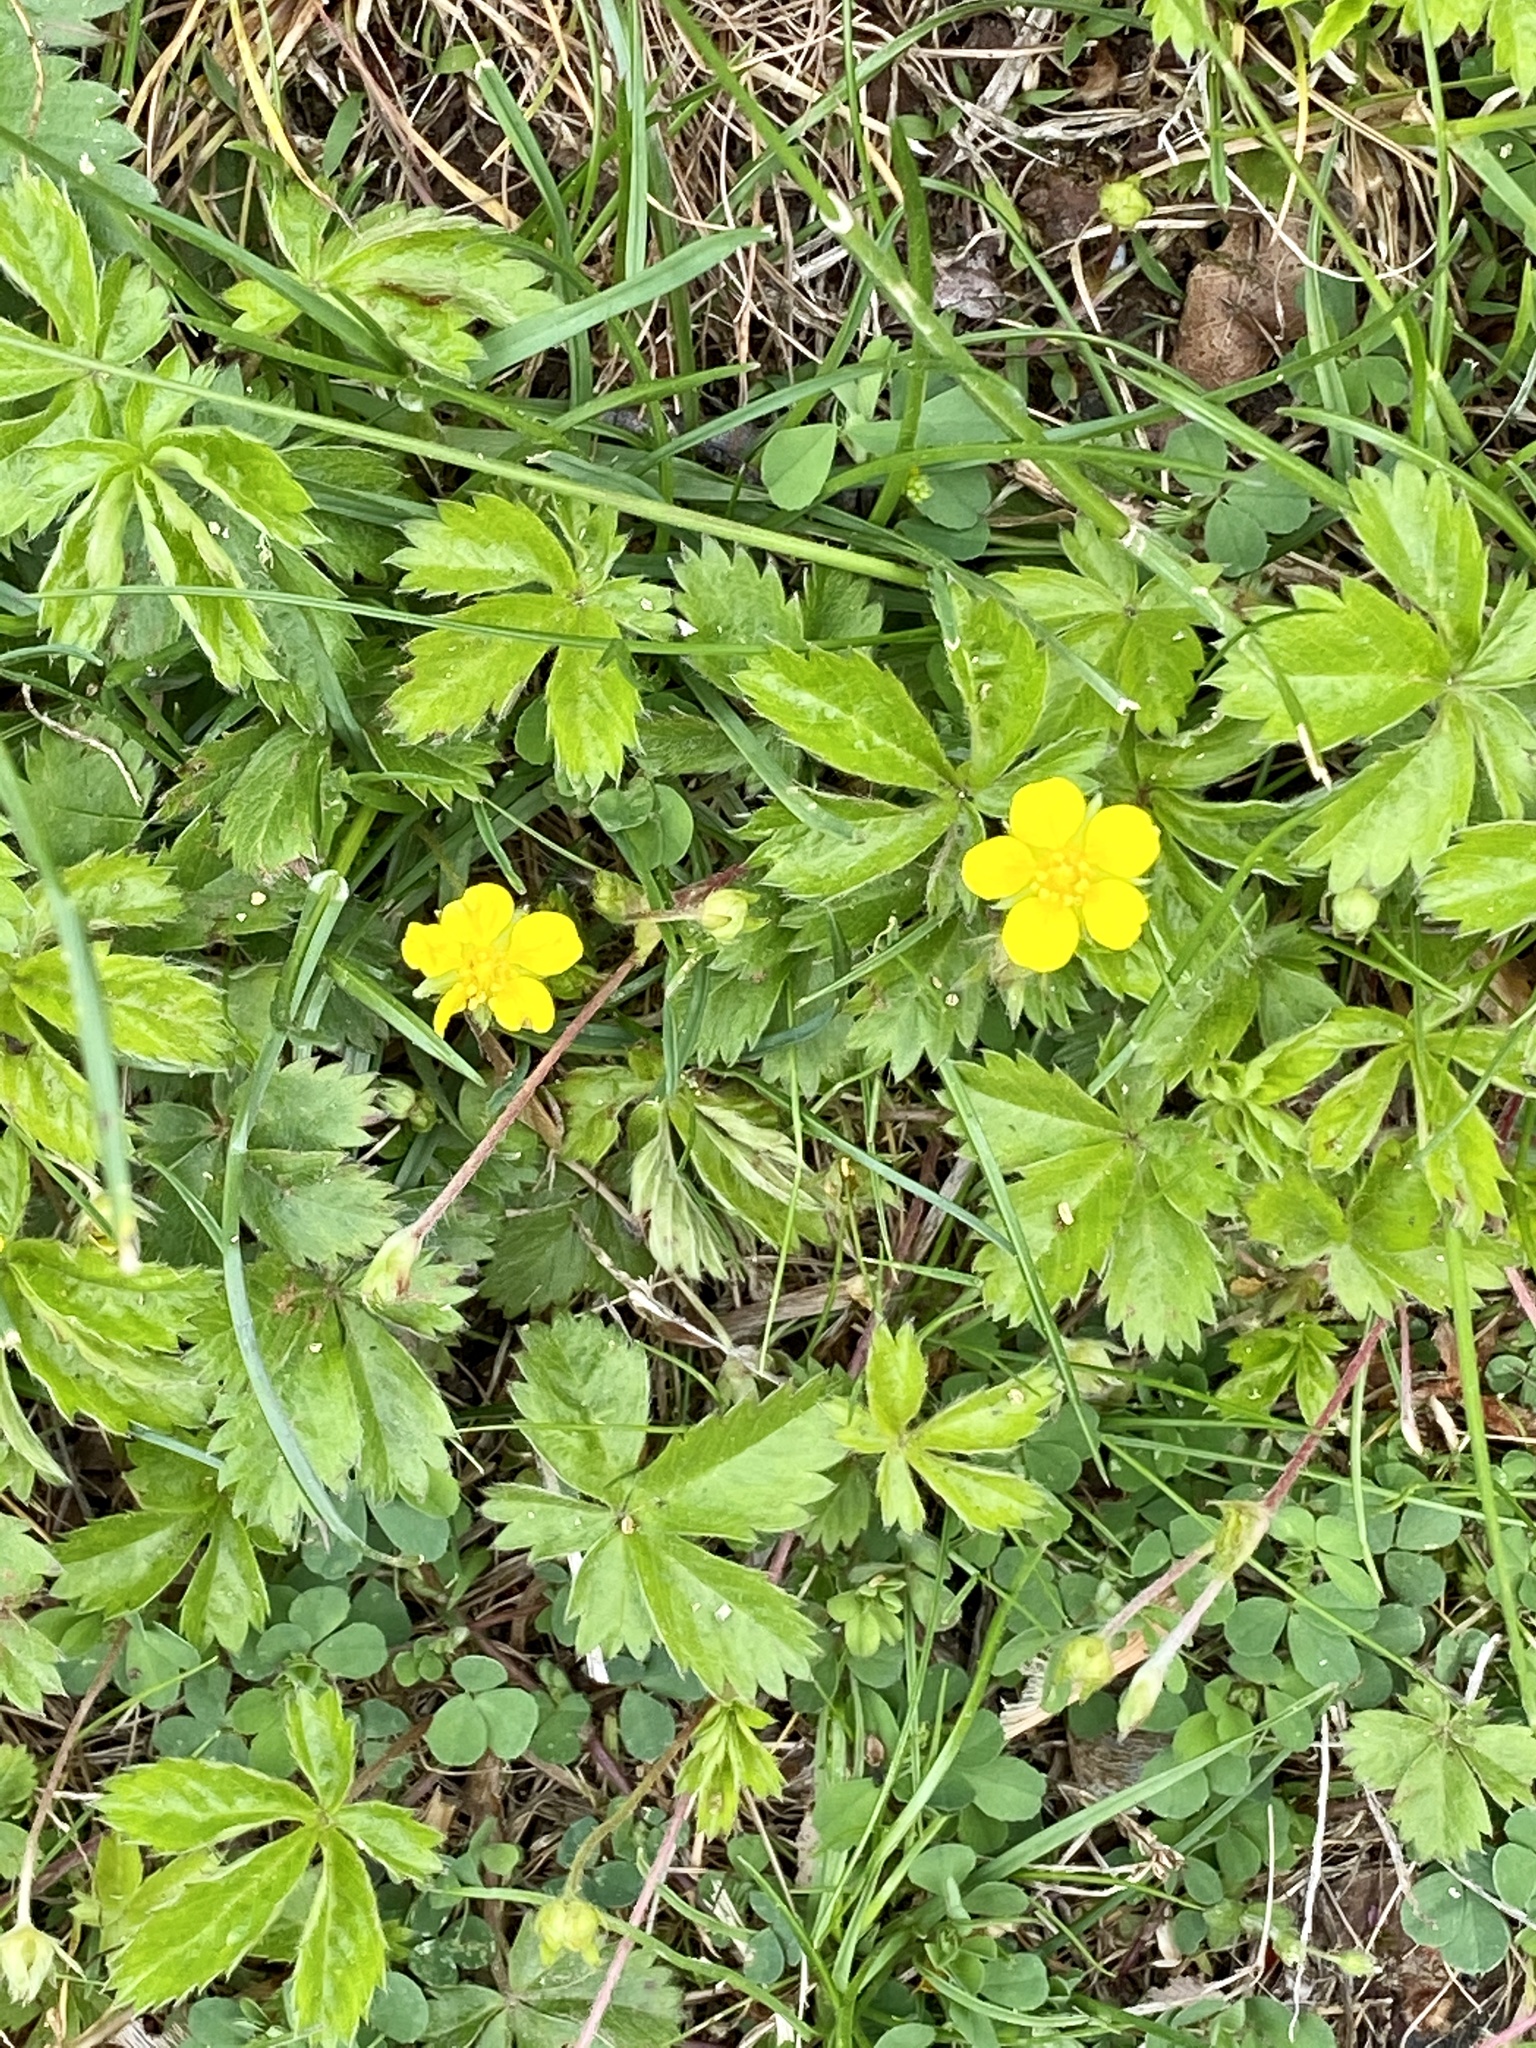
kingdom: Plantae
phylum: Tracheophyta
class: Magnoliopsida
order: Rosales
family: Rosaceae
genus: Potentilla
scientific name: Potentilla canadensis
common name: Canada cinquefoil
